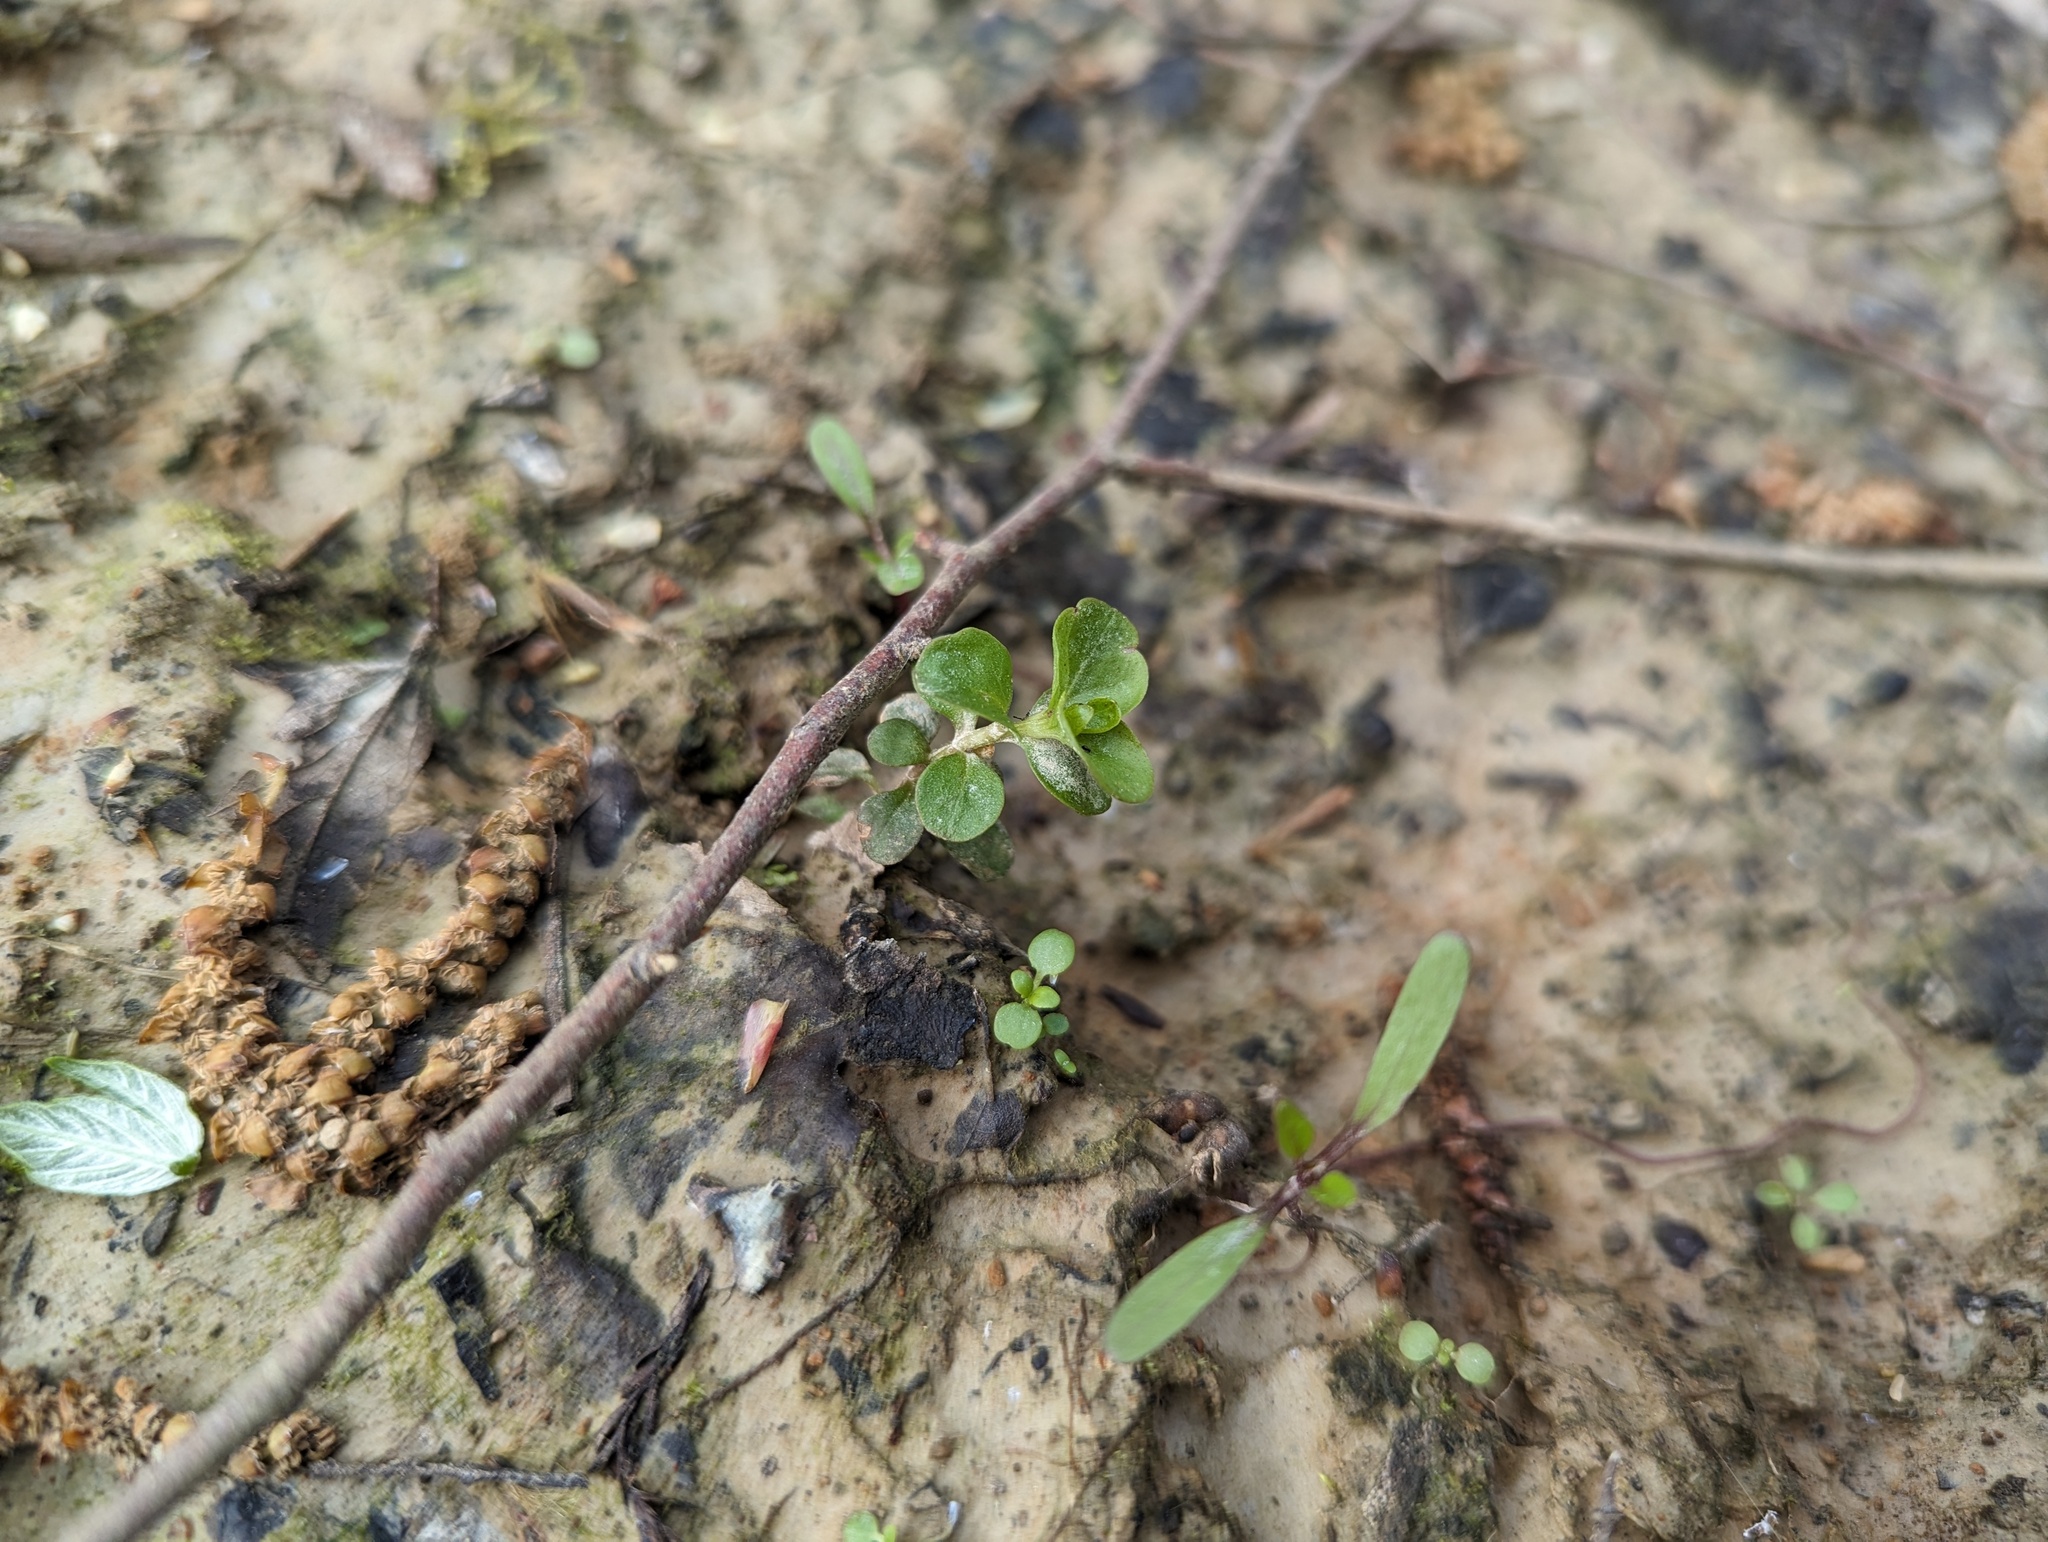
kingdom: Plantae
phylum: Tracheophyta
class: Magnoliopsida
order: Ericales
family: Primulaceae
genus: Lysimachia
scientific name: Lysimachia nummularia
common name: Moneywort
